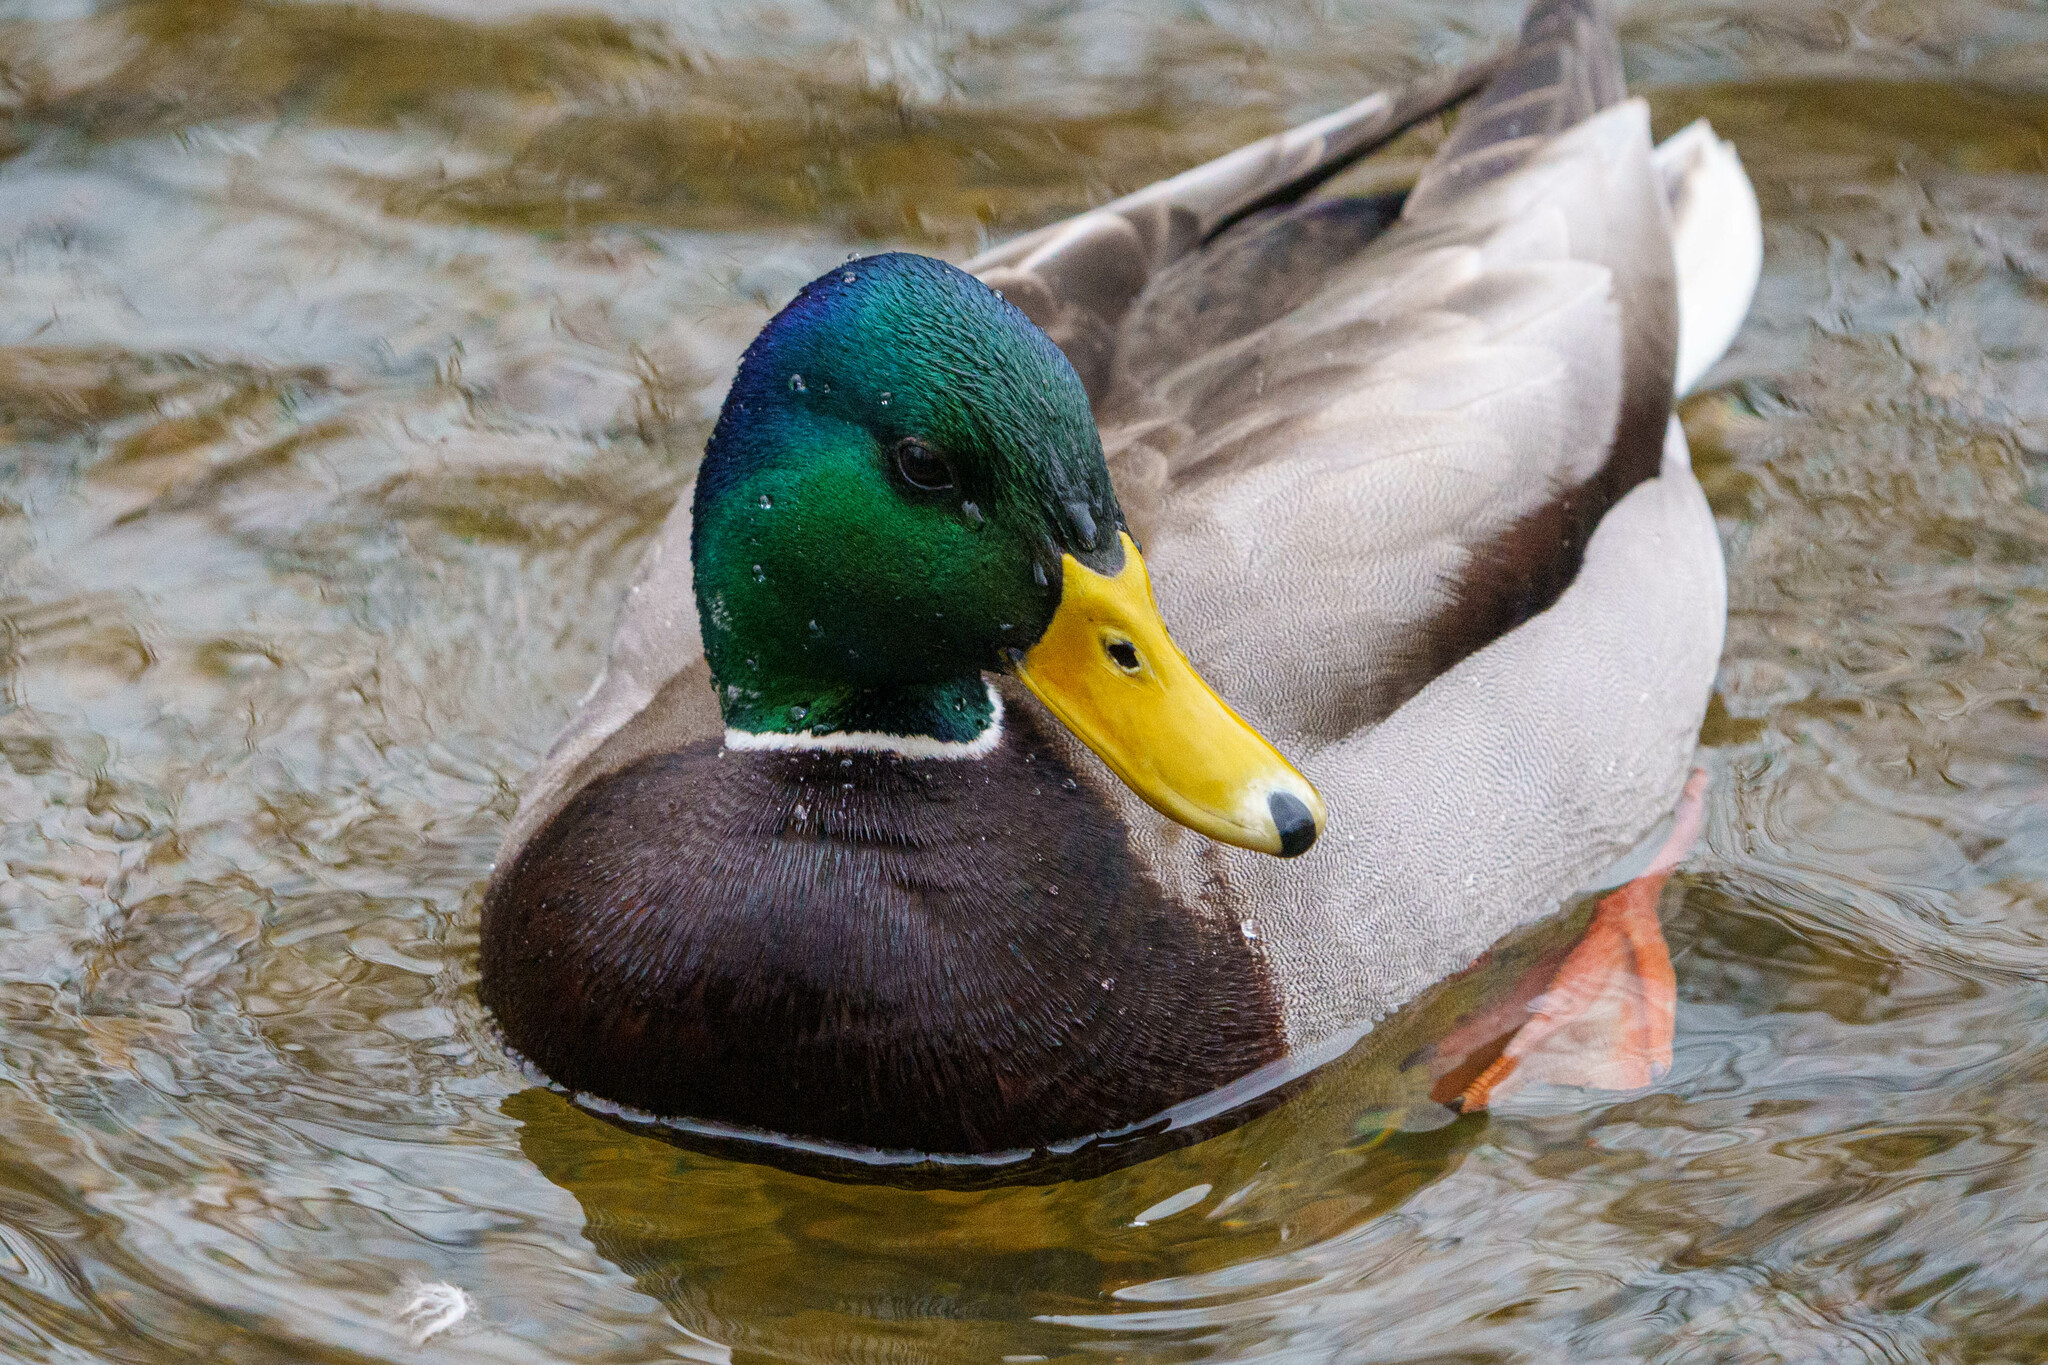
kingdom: Animalia
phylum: Chordata
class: Aves
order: Anseriformes
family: Anatidae
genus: Anas
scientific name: Anas platyrhynchos
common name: Mallard
